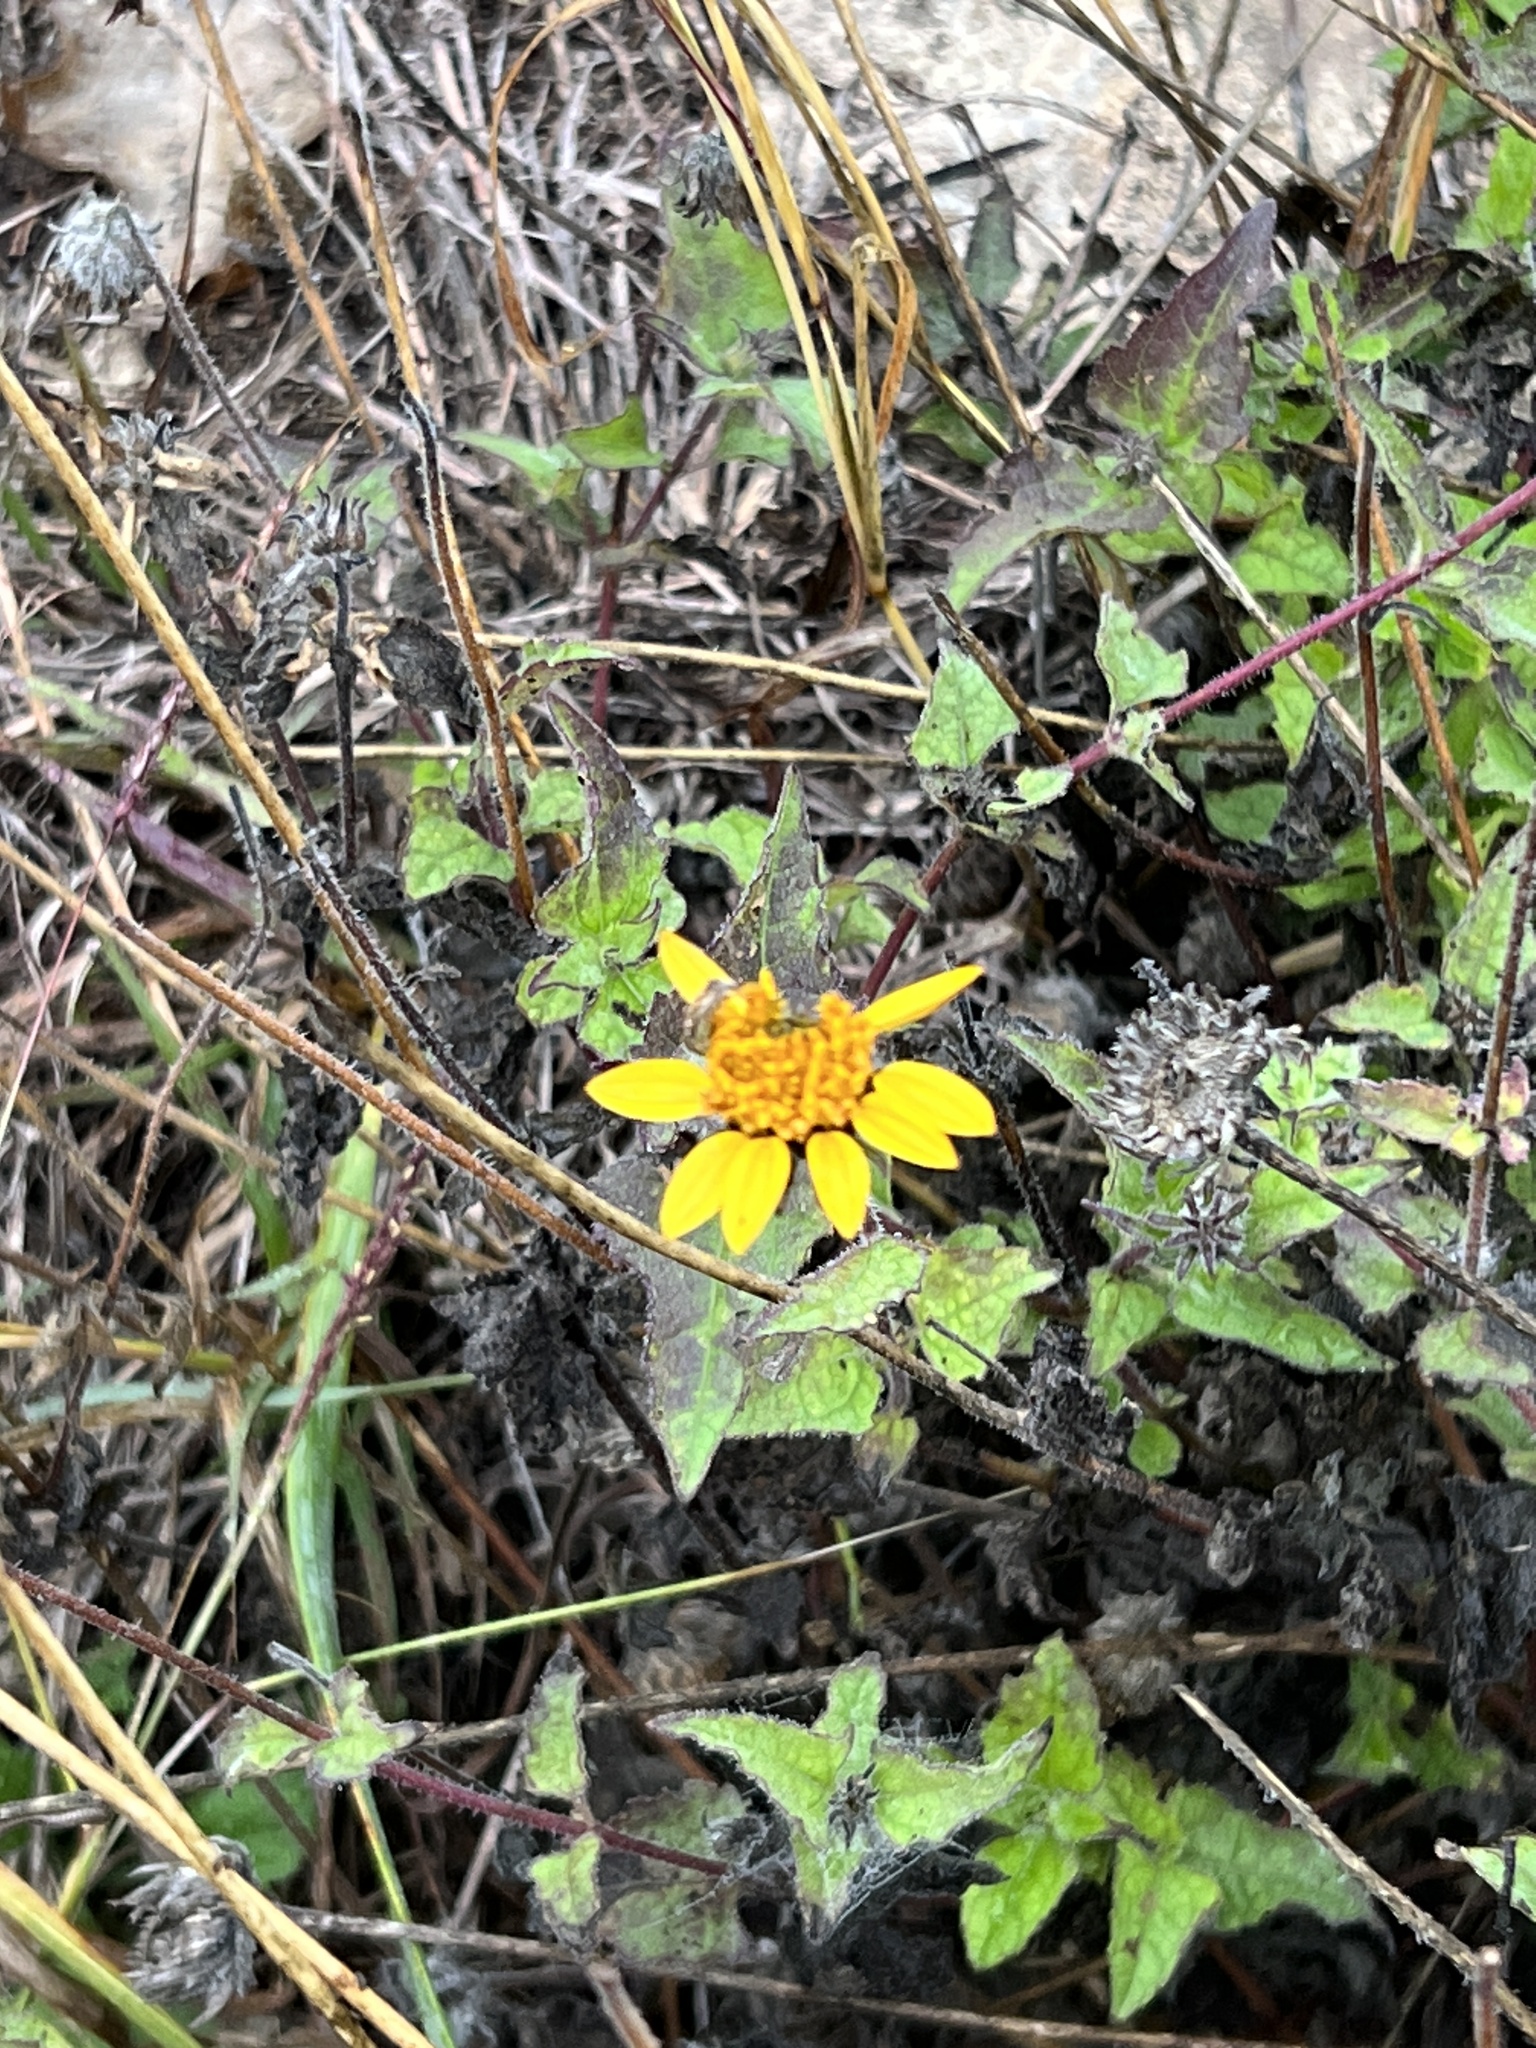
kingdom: Plantae
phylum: Tracheophyta
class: Magnoliopsida
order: Asterales
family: Asteraceae
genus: Simsia
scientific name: Simsia calva
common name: Awnless bush-sunflower
